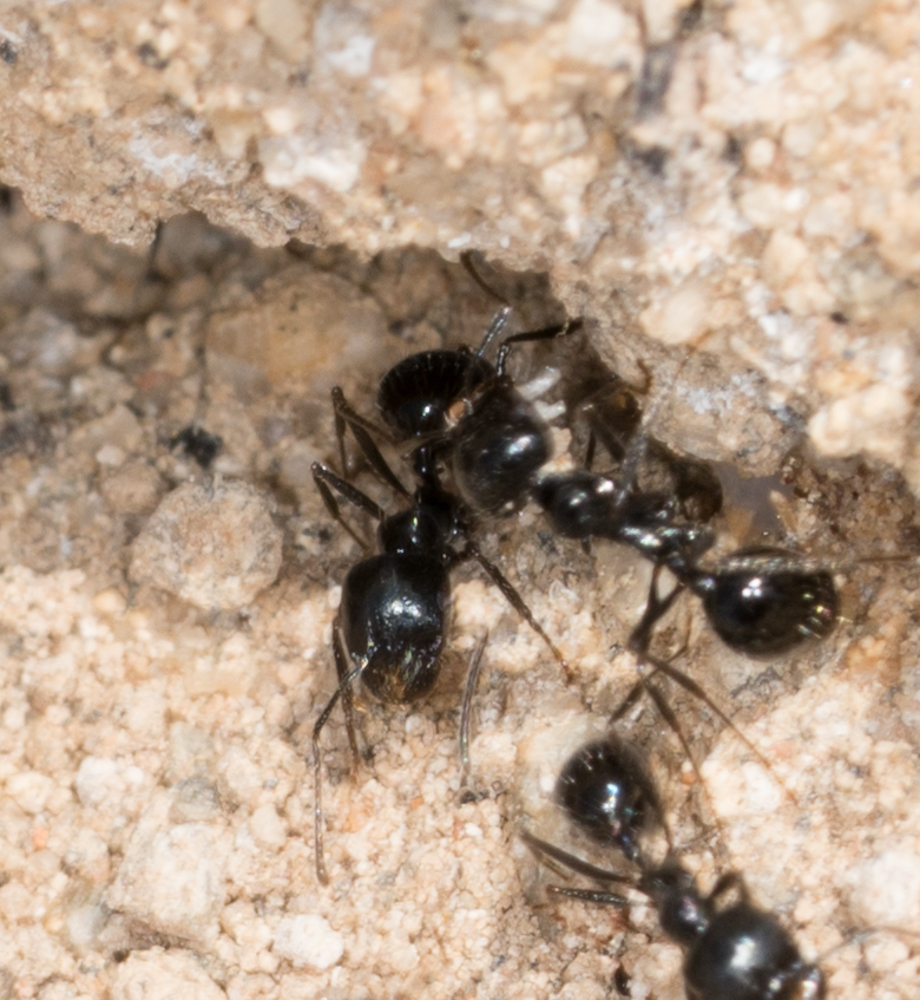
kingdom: Animalia
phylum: Arthropoda
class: Insecta
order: Hymenoptera
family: Formicidae
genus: Messor
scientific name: Messor pergandei
